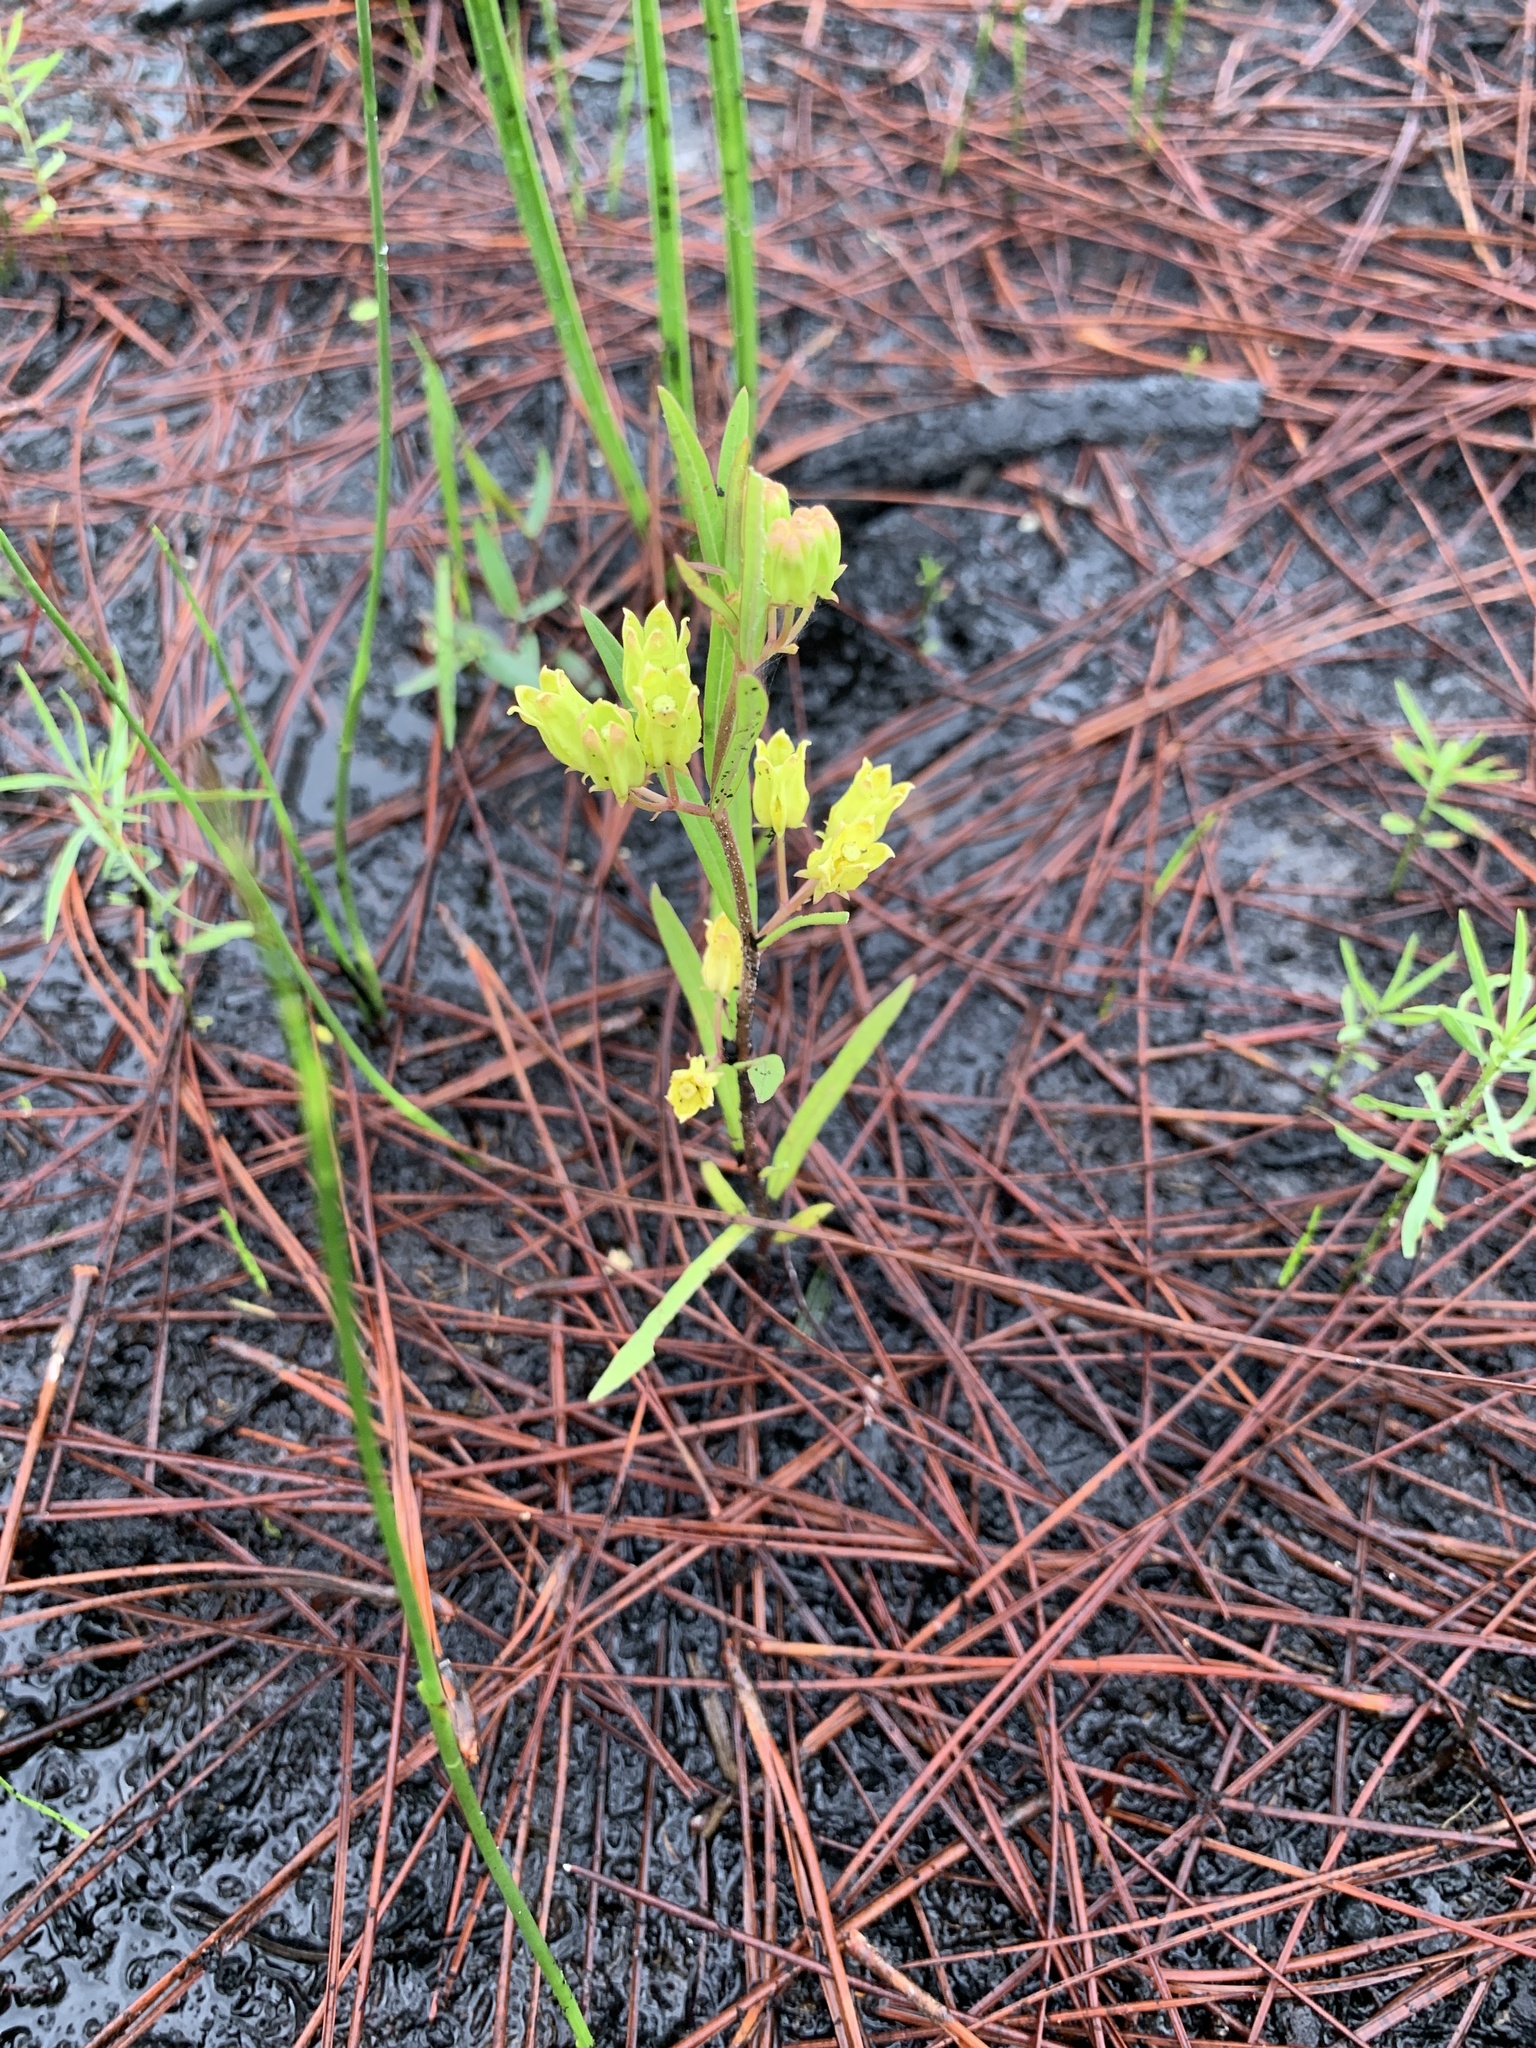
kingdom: Plantae
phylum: Tracheophyta
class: Magnoliopsida
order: Gentianales
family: Apocynaceae
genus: Asclepias
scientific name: Asclepias pedicellata
